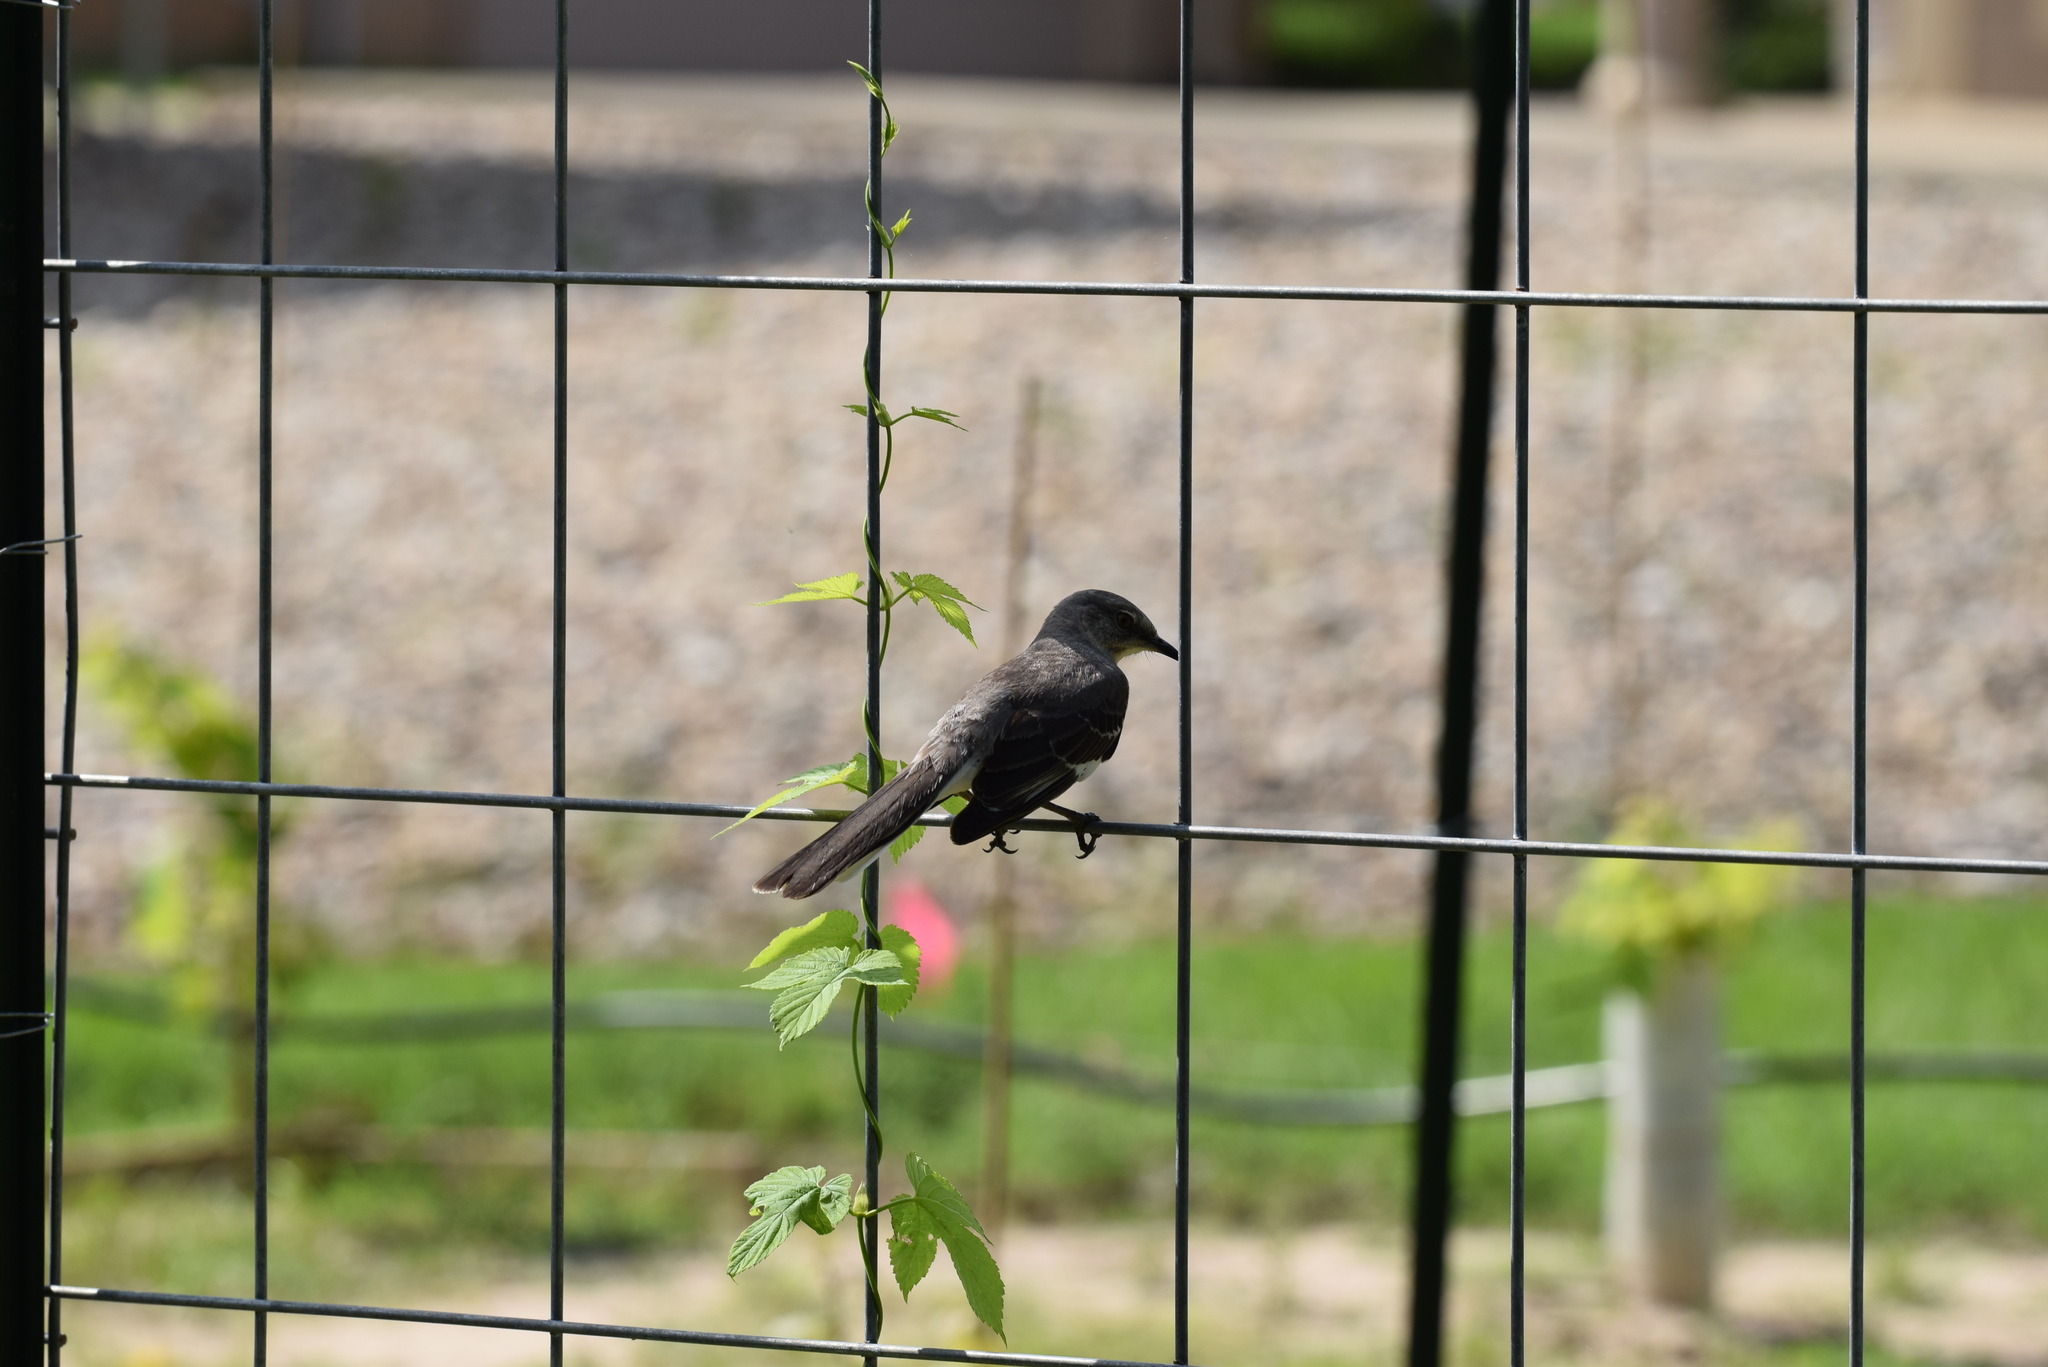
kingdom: Animalia
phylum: Chordata
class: Aves
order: Passeriformes
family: Mimidae
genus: Mimus
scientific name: Mimus polyglottos
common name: Northern mockingbird
